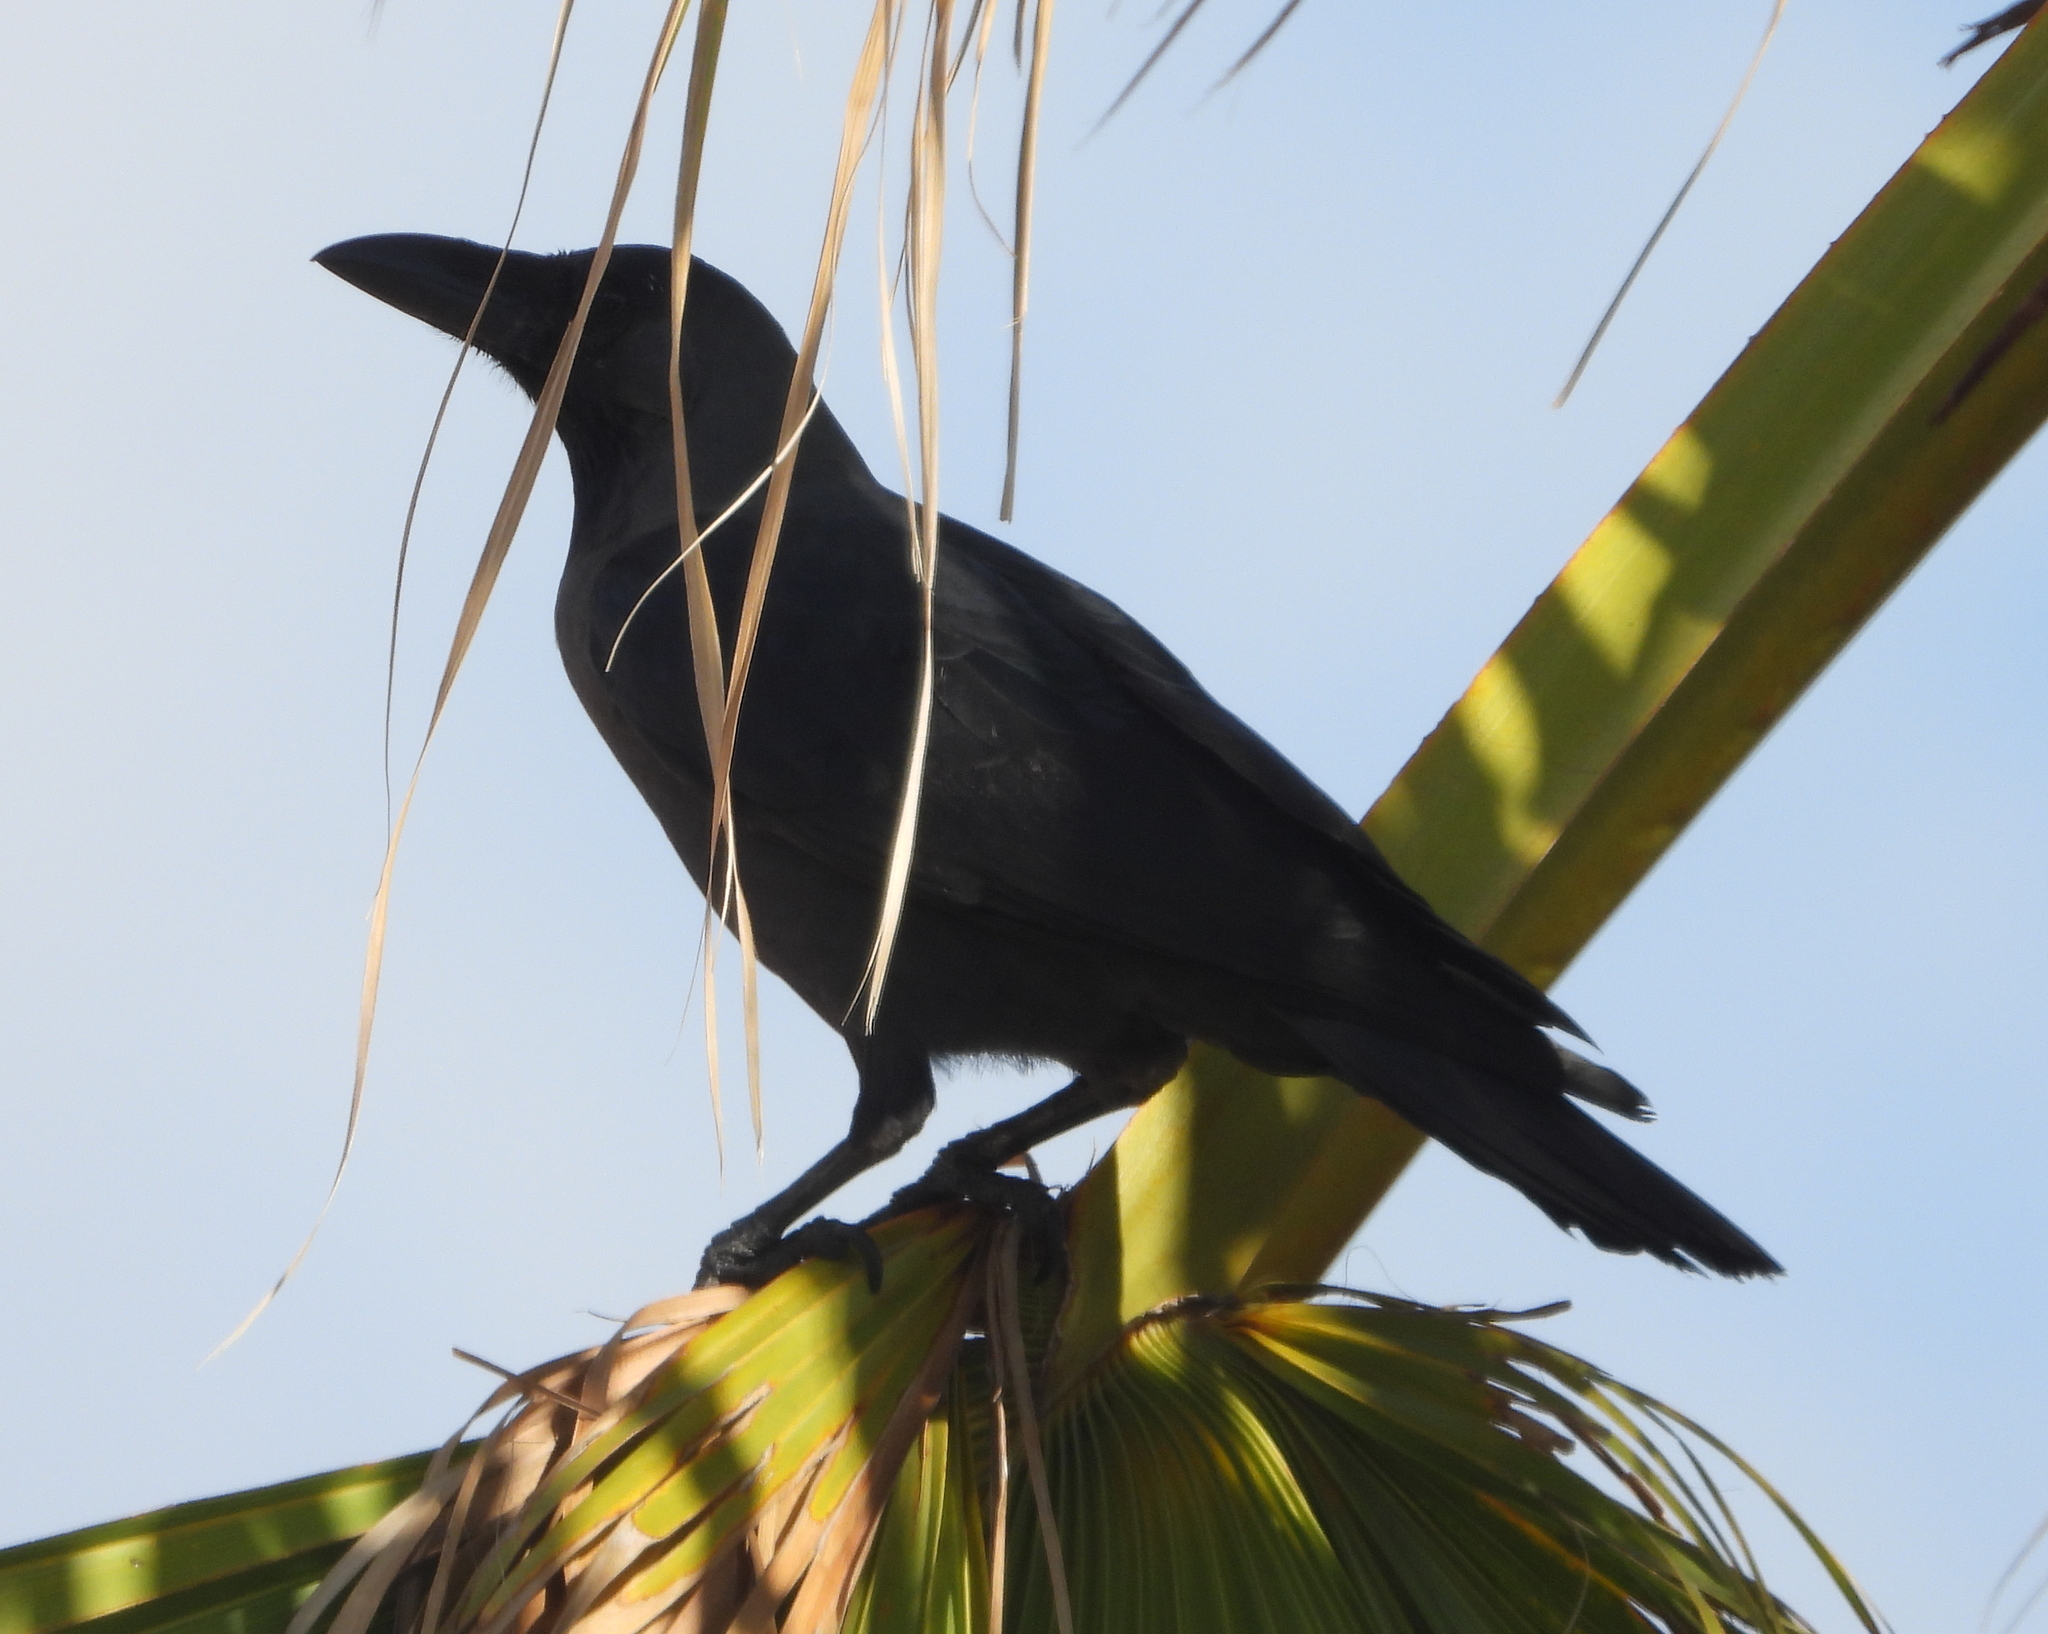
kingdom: Animalia
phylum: Chordata
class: Aves
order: Passeriformes
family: Corvidae
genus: Corvus
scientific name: Corvus splendens
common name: House crow
